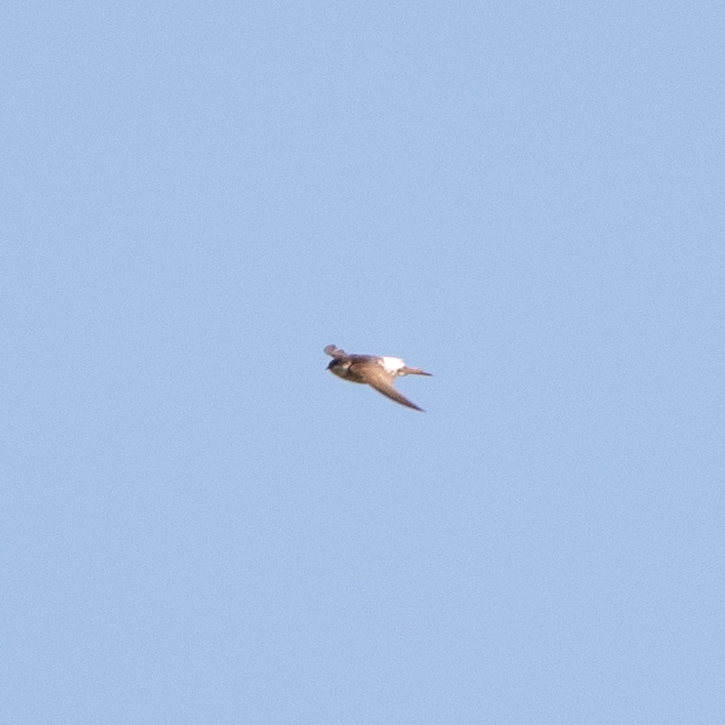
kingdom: Animalia
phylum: Chordata
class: Aves
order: Passeriformes
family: Hirundinidae
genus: Delichon
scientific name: Delichon urbicum
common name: Common house martin
